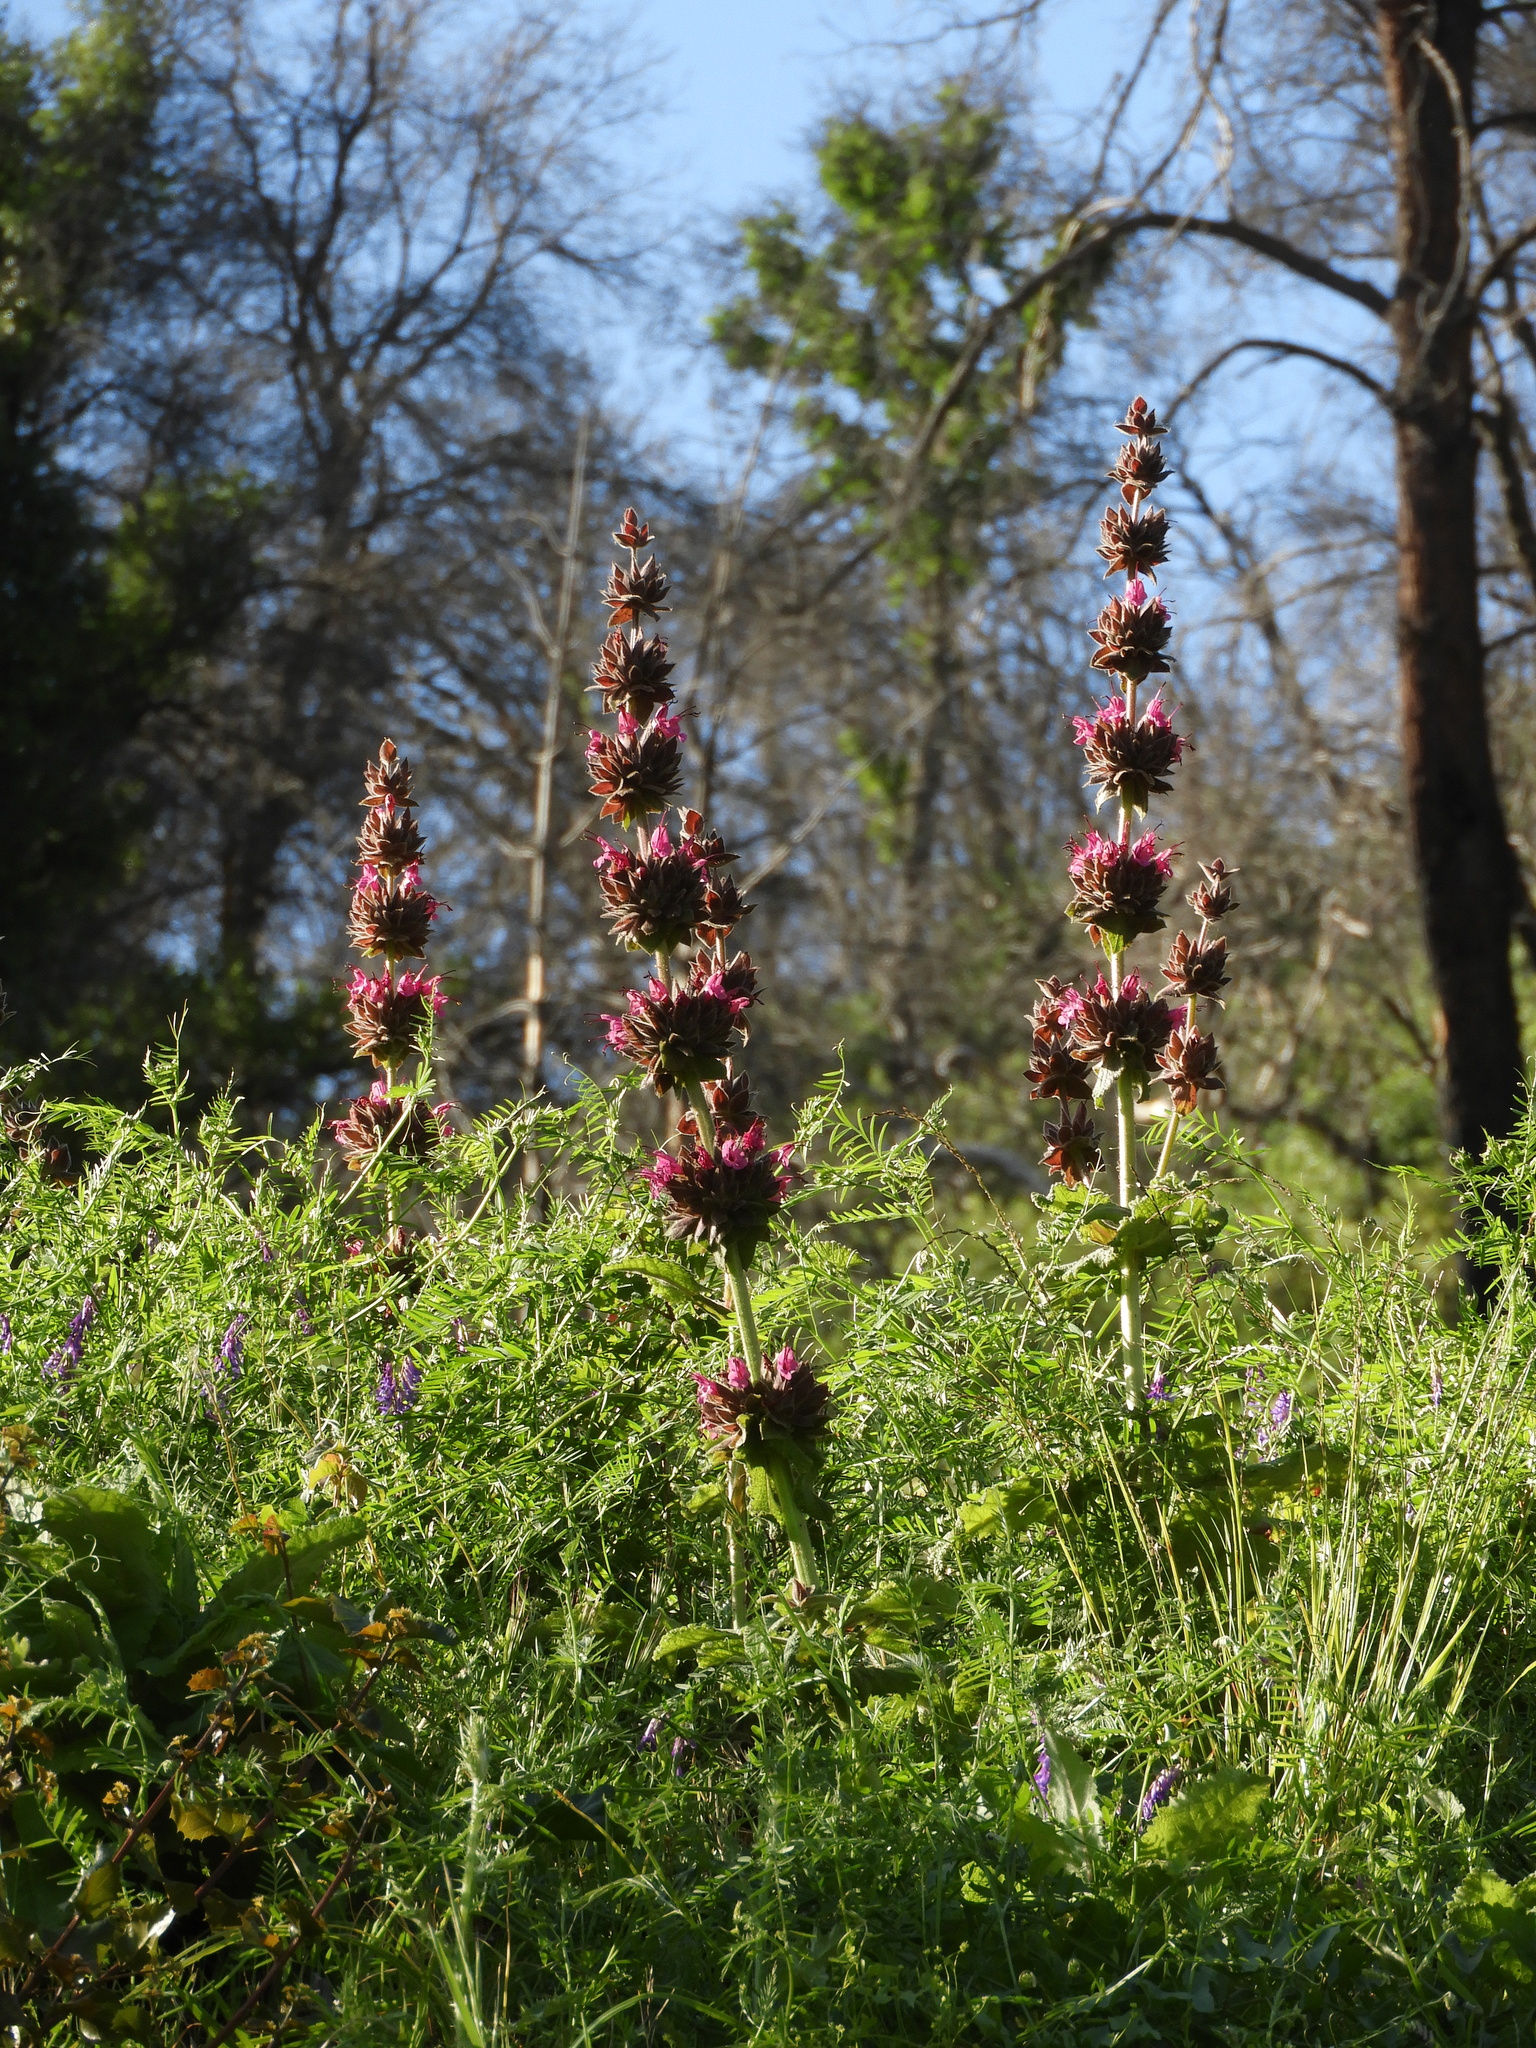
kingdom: Plantae
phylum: Tracheophyta
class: Magnoliopsida
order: Lamiales
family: Lamiaceae
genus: Salvia
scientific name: Salvia spathacea
